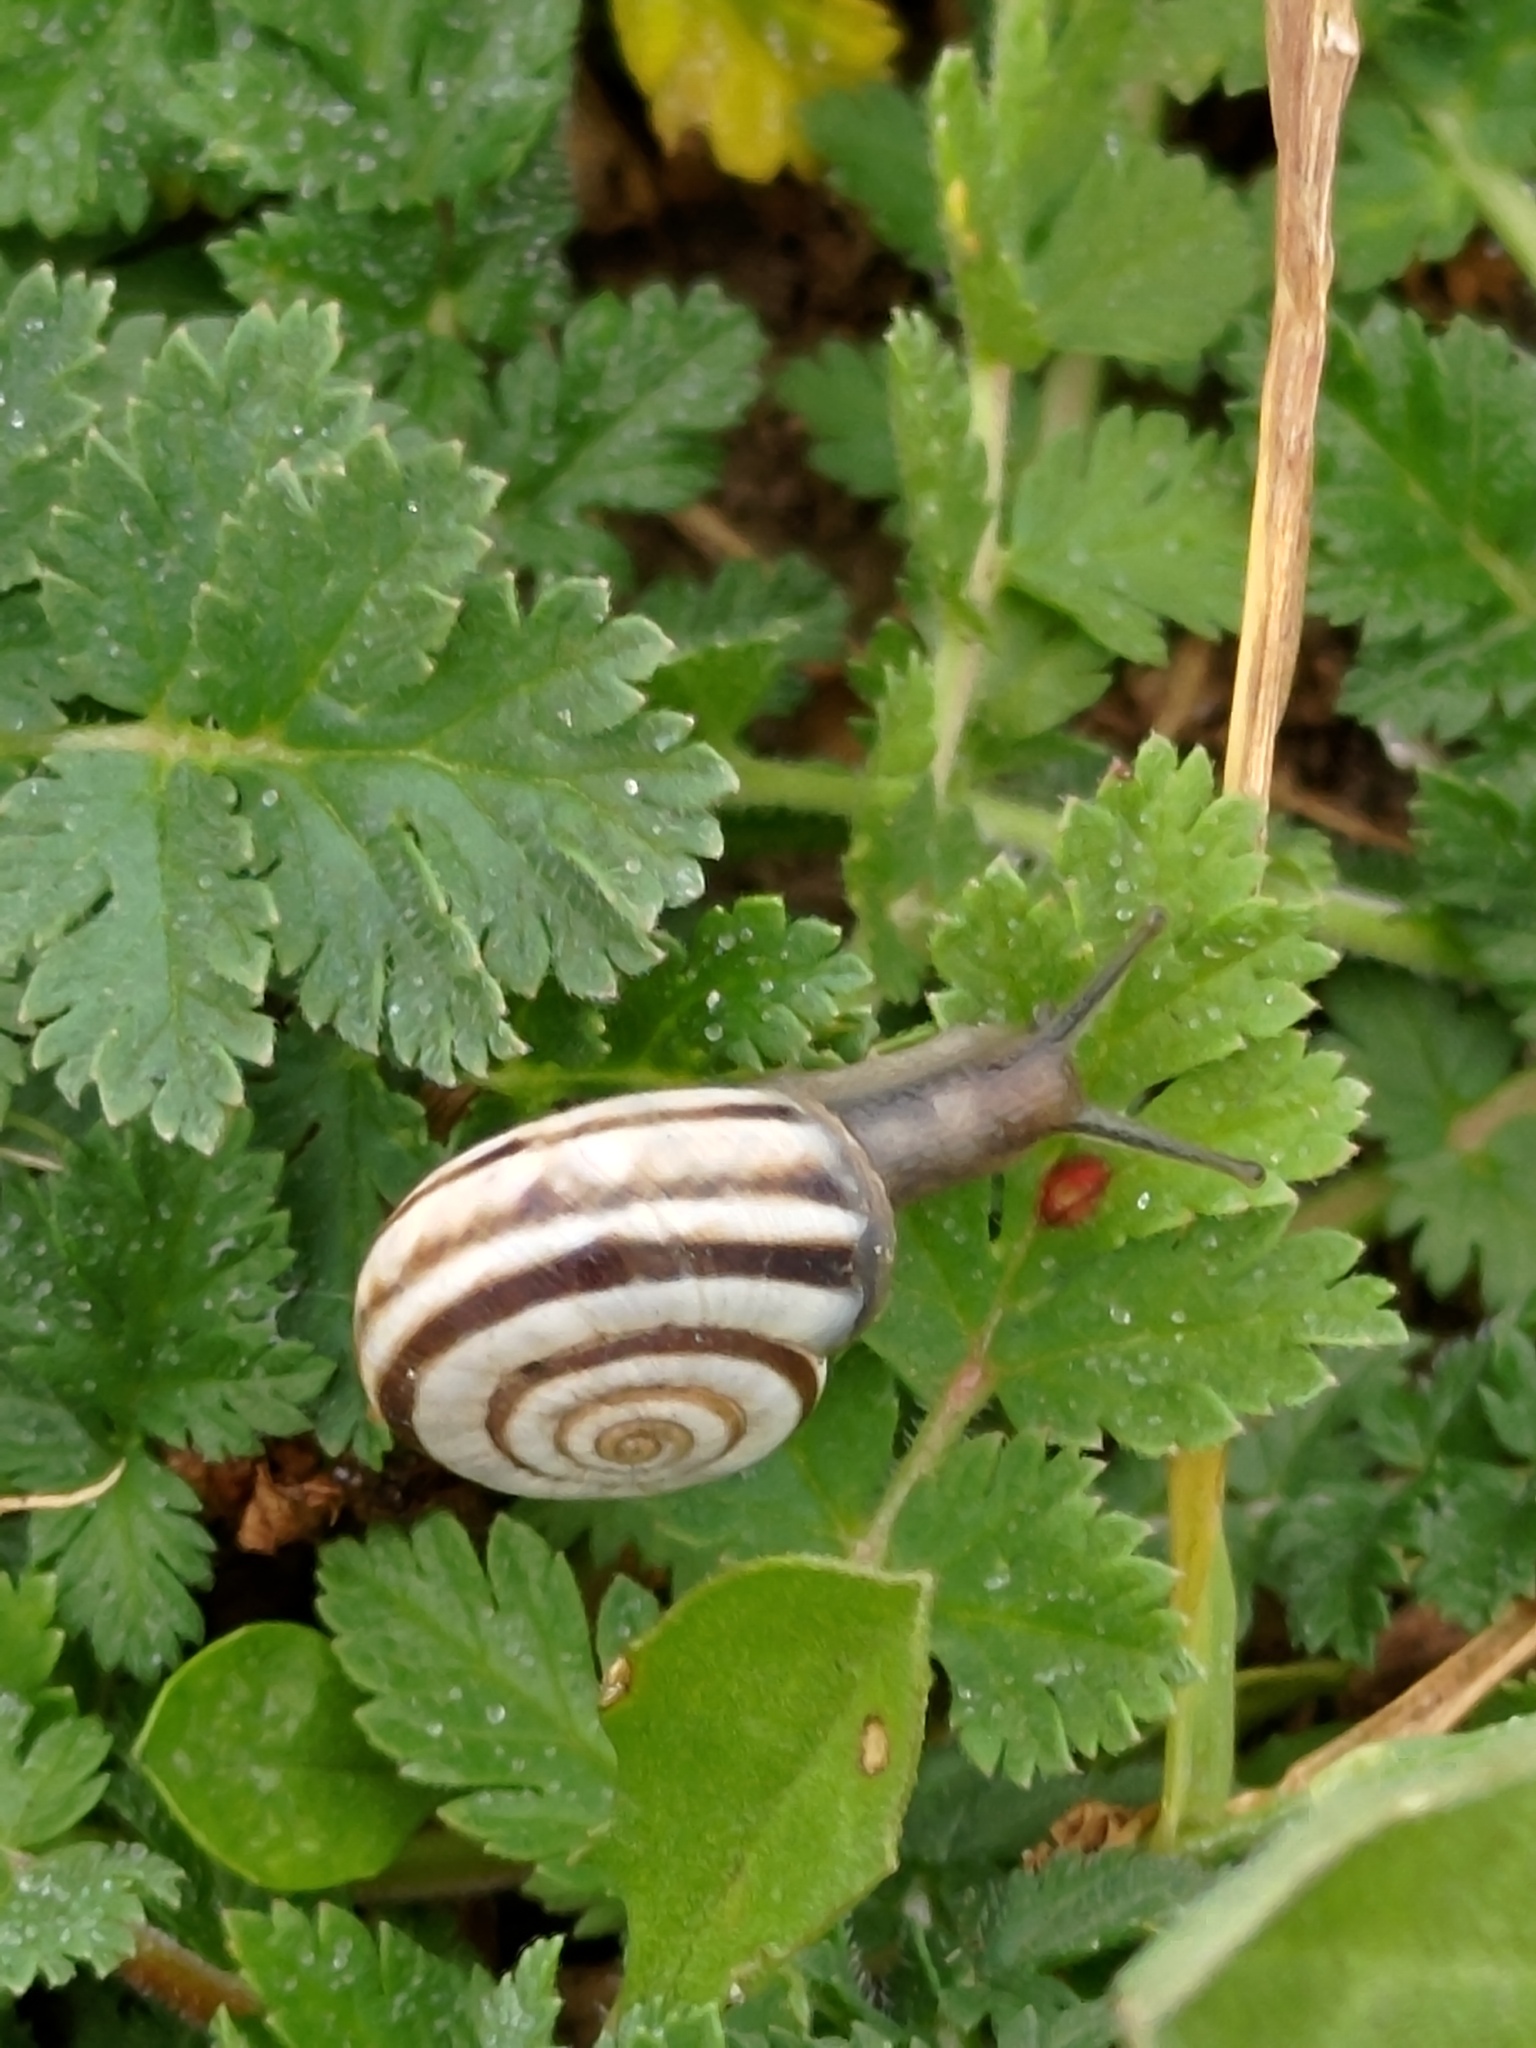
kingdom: Animalia
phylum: Mollusca
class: Gastropoda
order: Stylommatophora
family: Geomitridae
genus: Xerolenta
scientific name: Xerolenta obvia
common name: White heath snail
